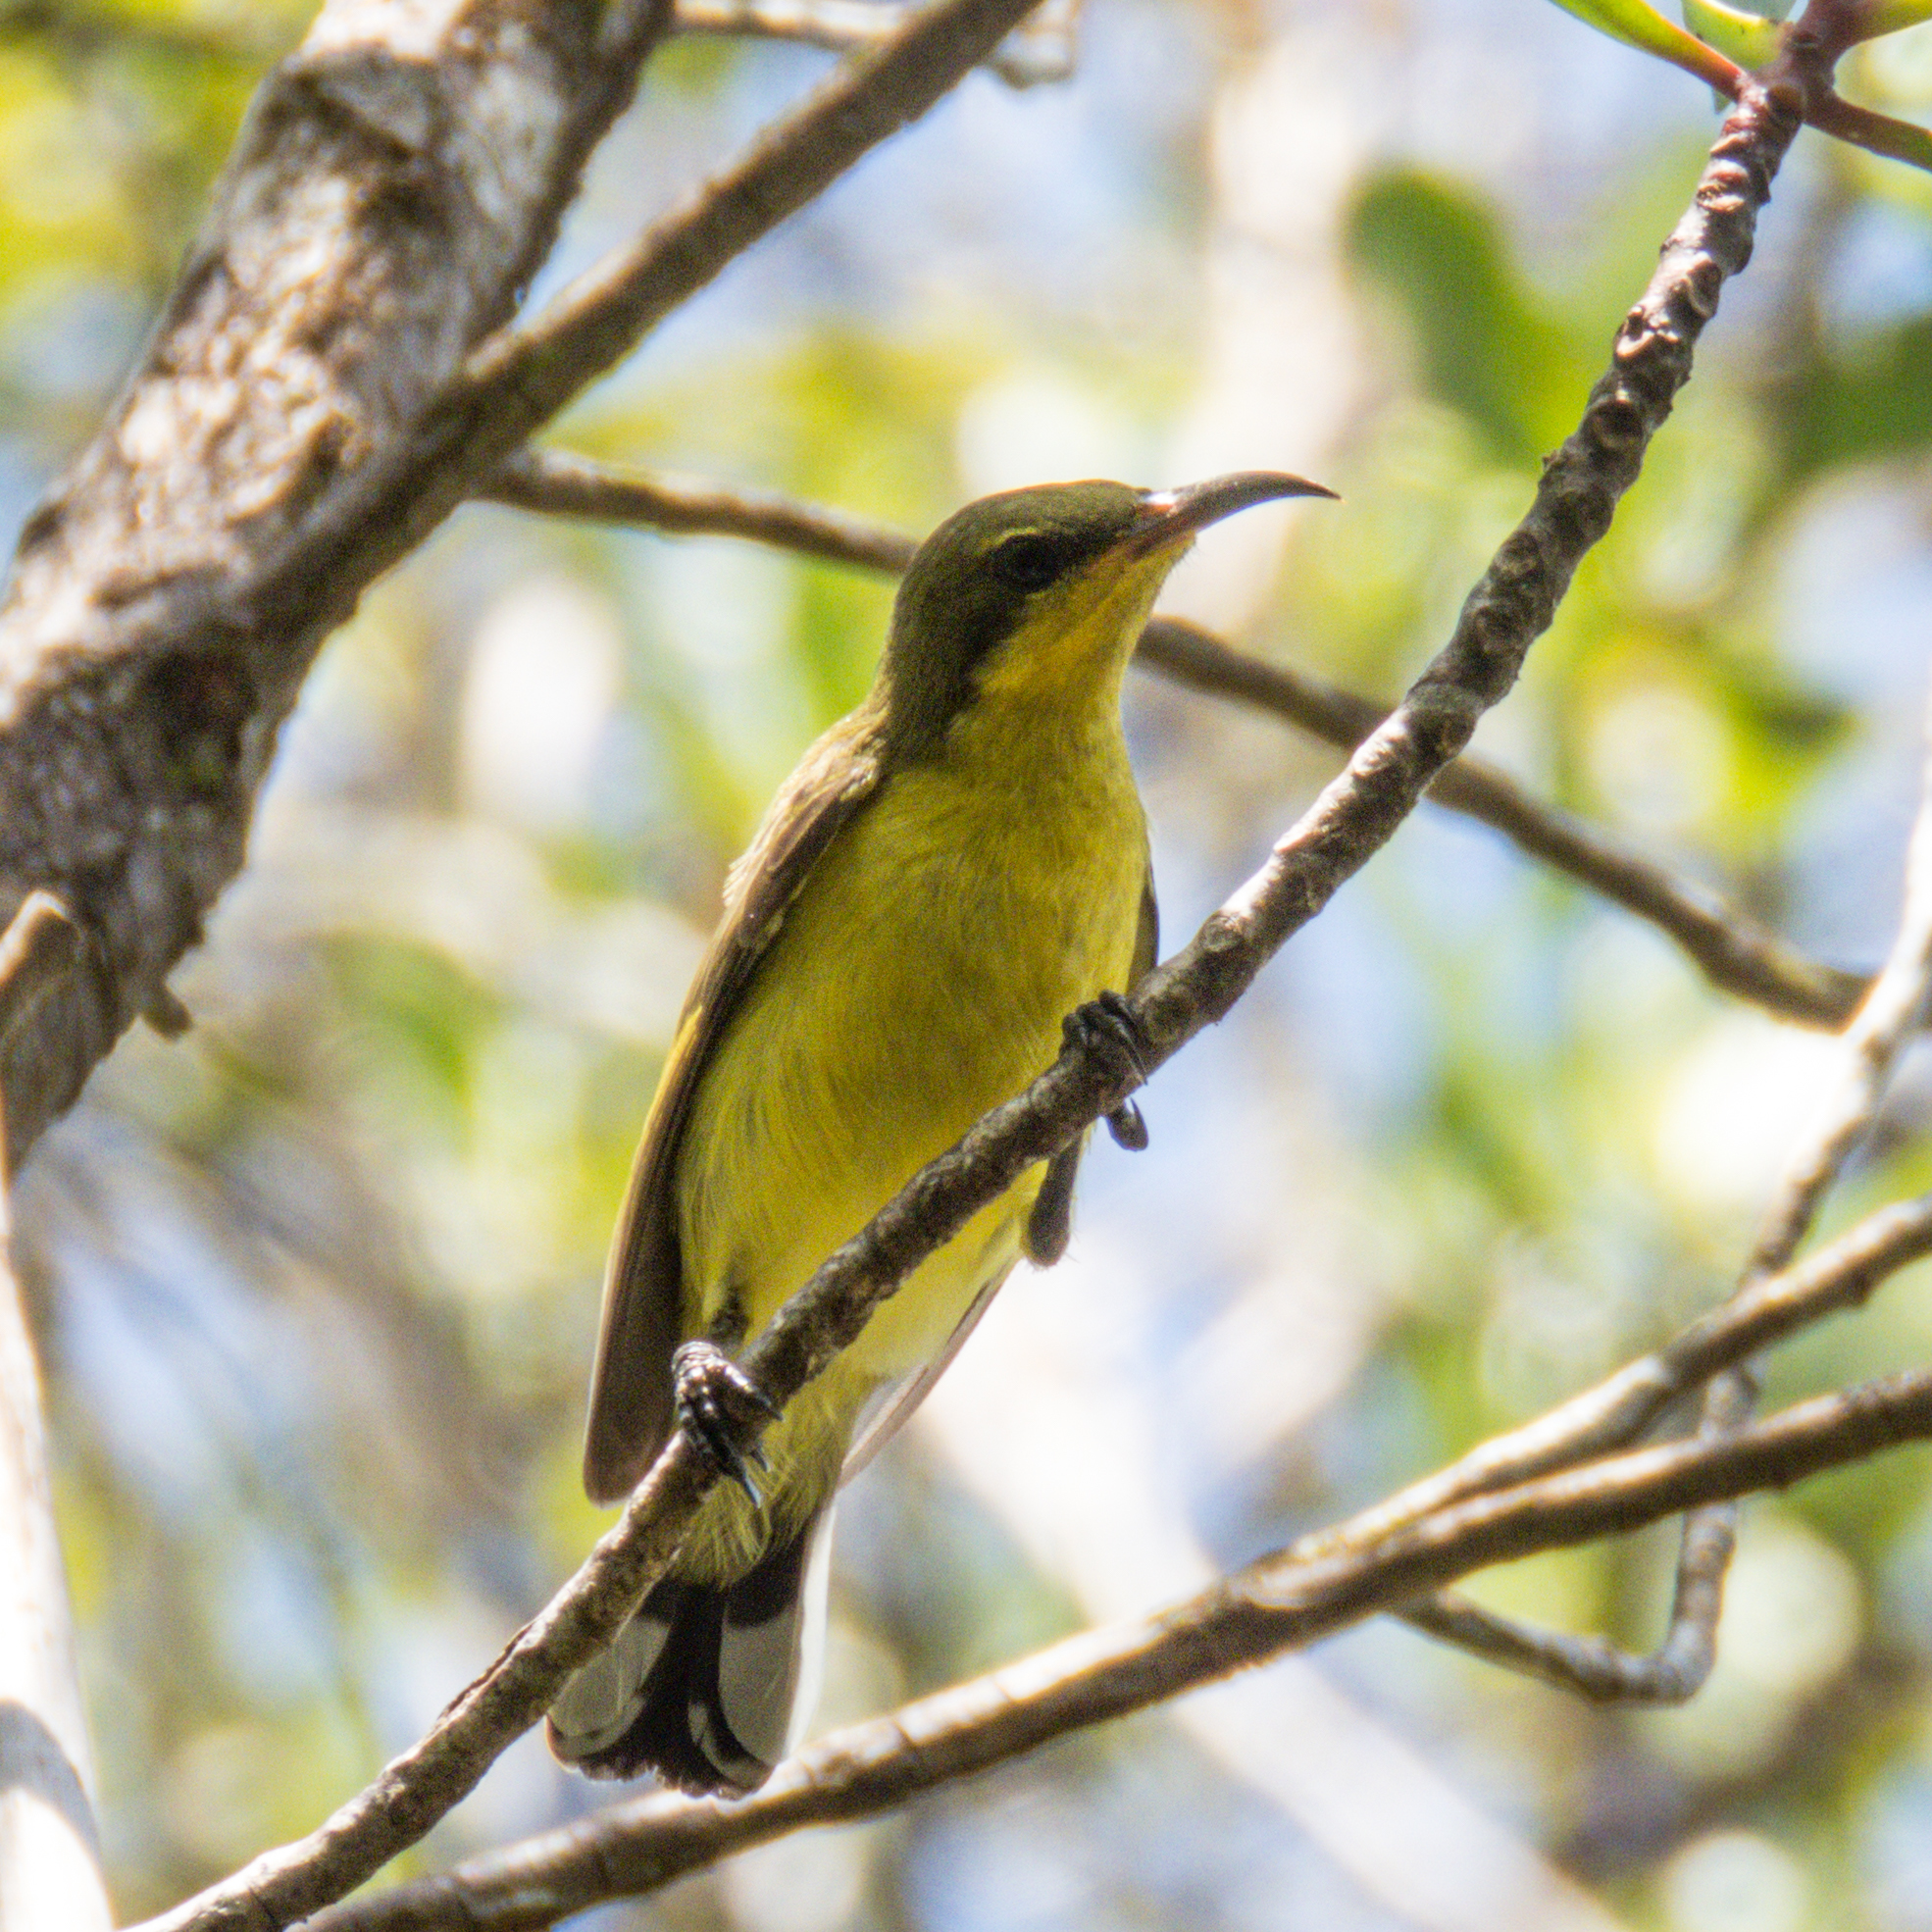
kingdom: Animalia
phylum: Chordata
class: Aves
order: Passeriformes
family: Nectariniidae
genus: Cinnyris
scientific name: Cinnyris
